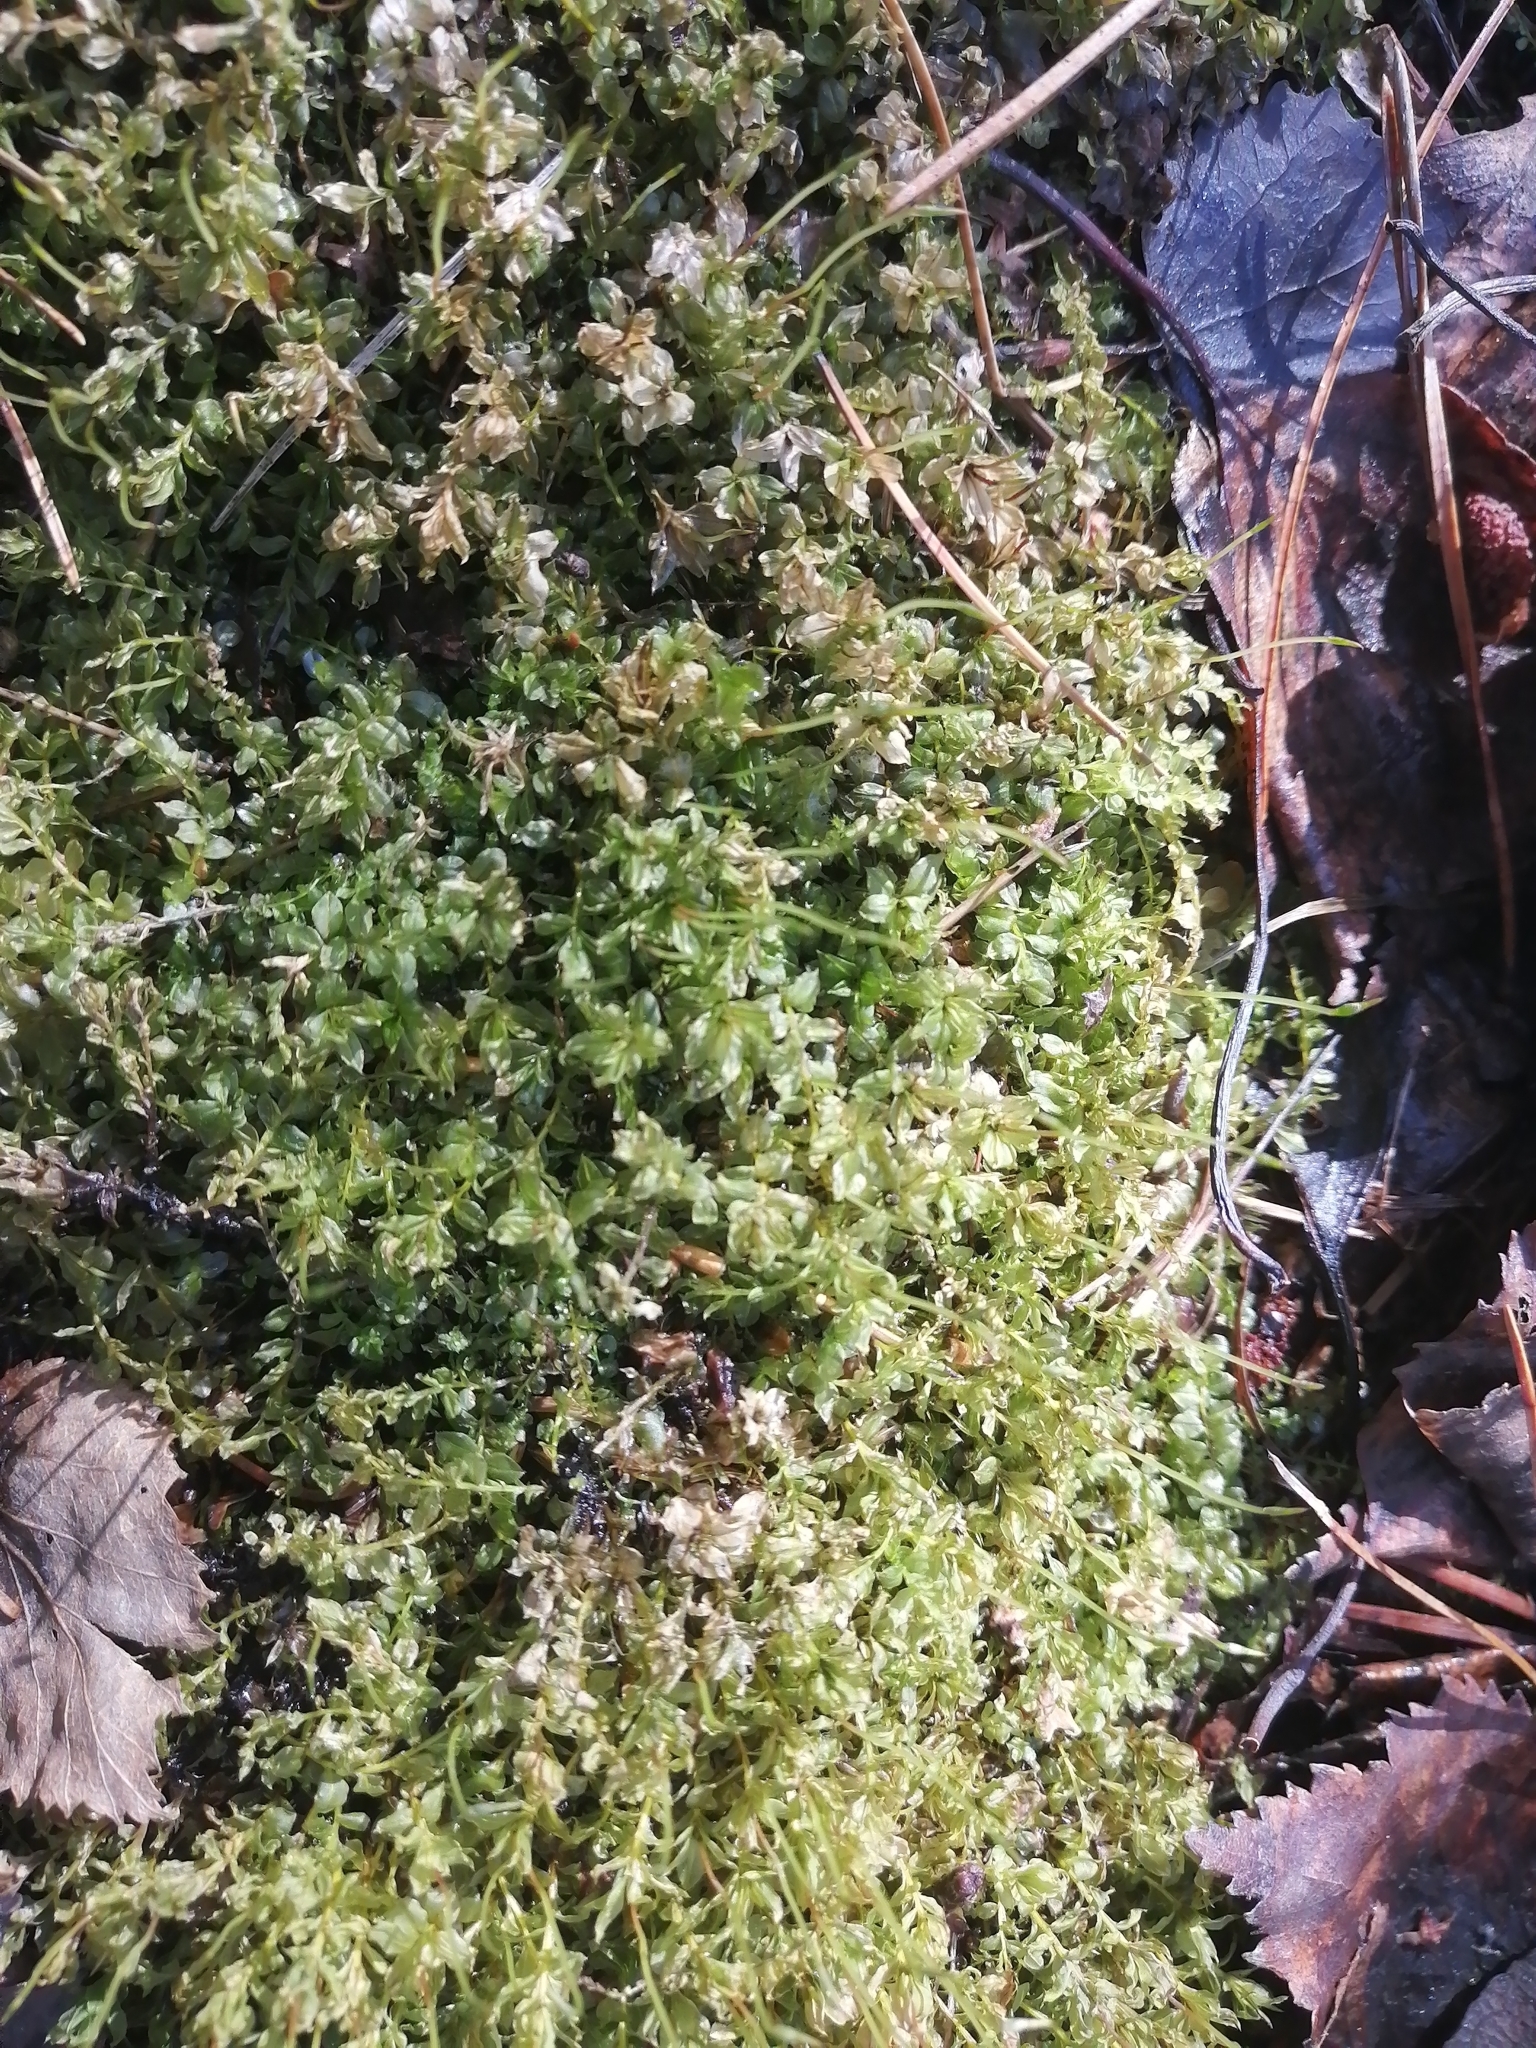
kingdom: Plantae
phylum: Bryophyta
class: Bryopsida
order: Bryales
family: Mniaceae
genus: Plagiomnium
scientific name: Plagiomnium ellipticum
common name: Marsh leafy moss
